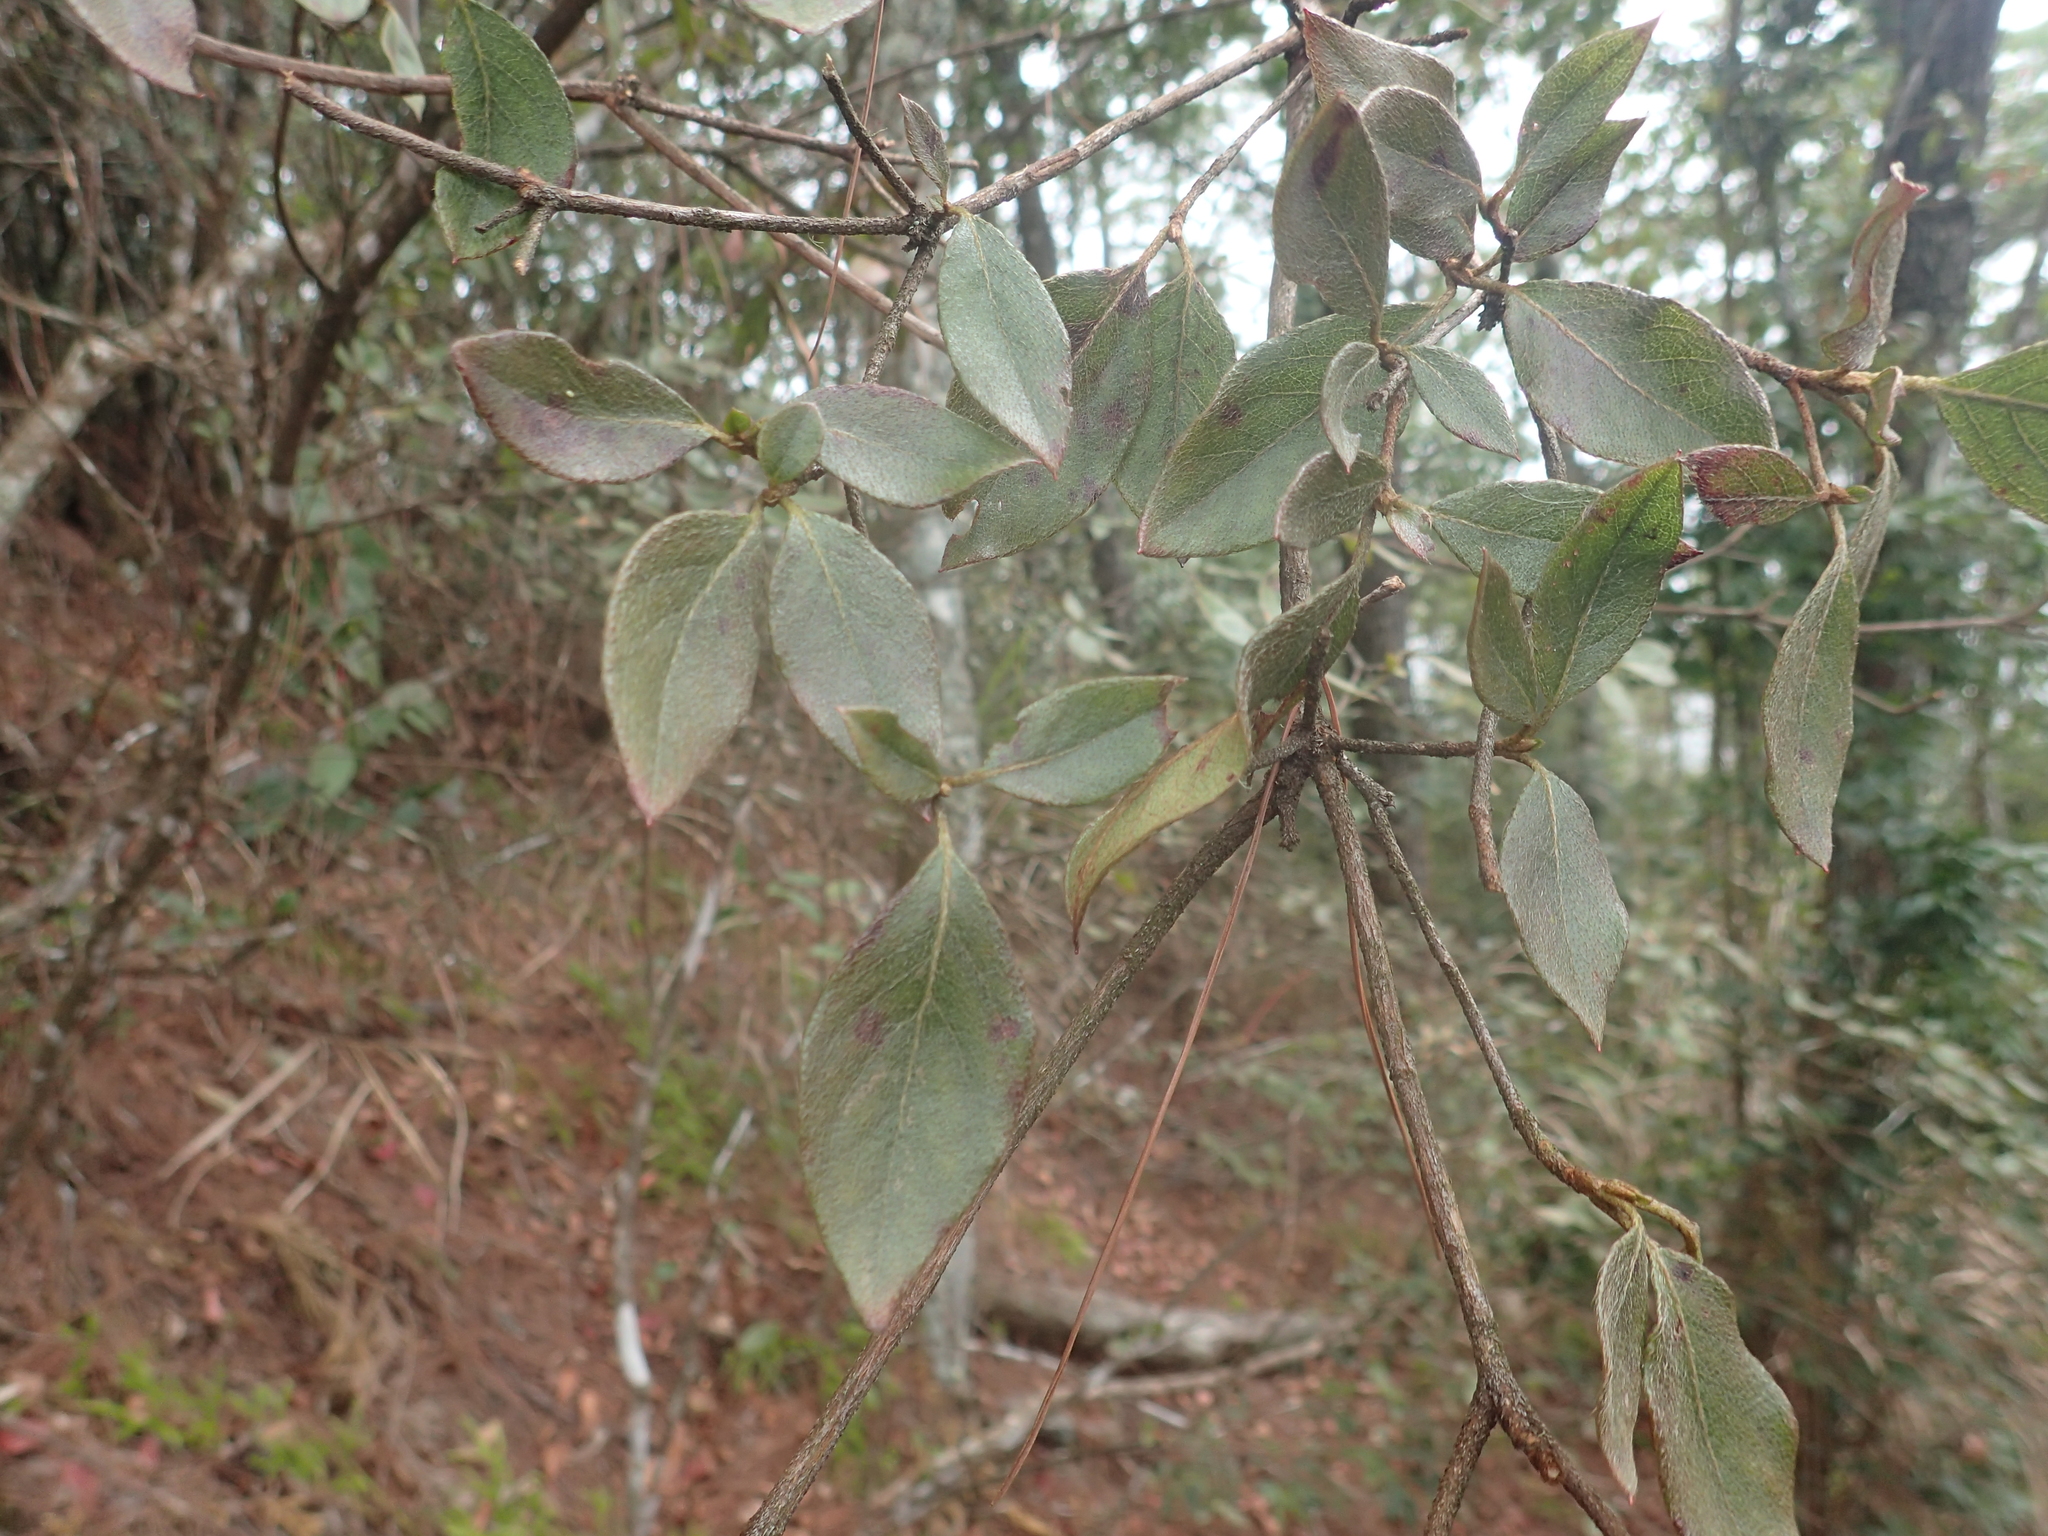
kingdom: Plantae
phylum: Tracheophyta
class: Magnoliopsida
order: Ericales
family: Ericaceae
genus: Rhododendron
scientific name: Rhododendron breviperulatum
